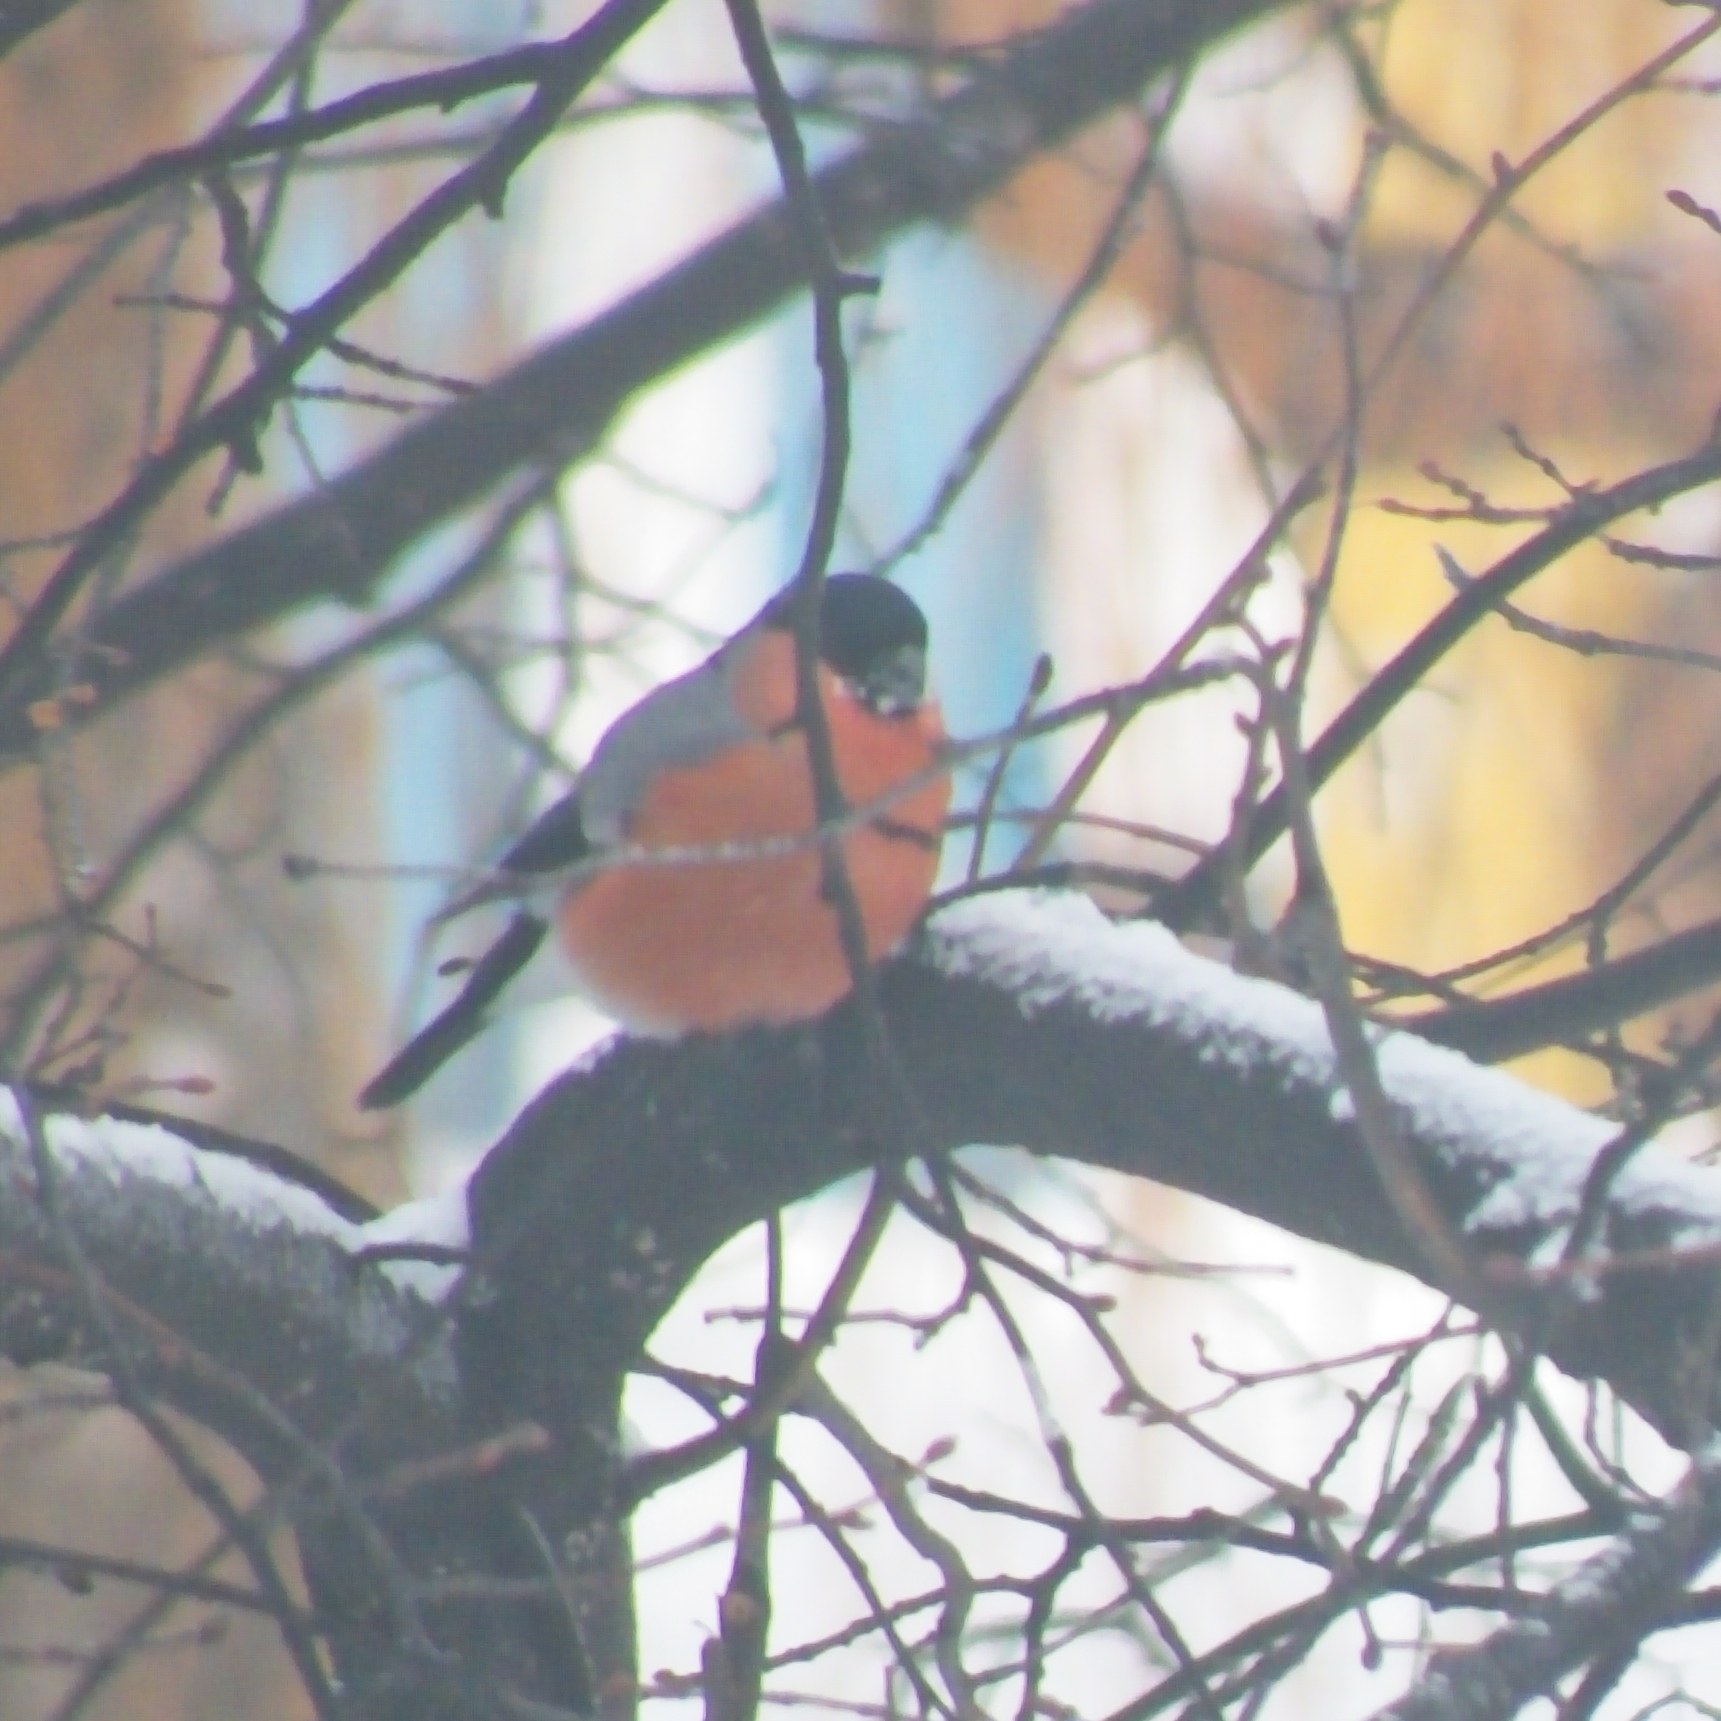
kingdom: Animalia
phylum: Chordata
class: Aves
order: Passeriformes
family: Fringillidae
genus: Pyrrhula
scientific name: Pyrrhula pyrrhula
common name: Eurasian bullfinch
